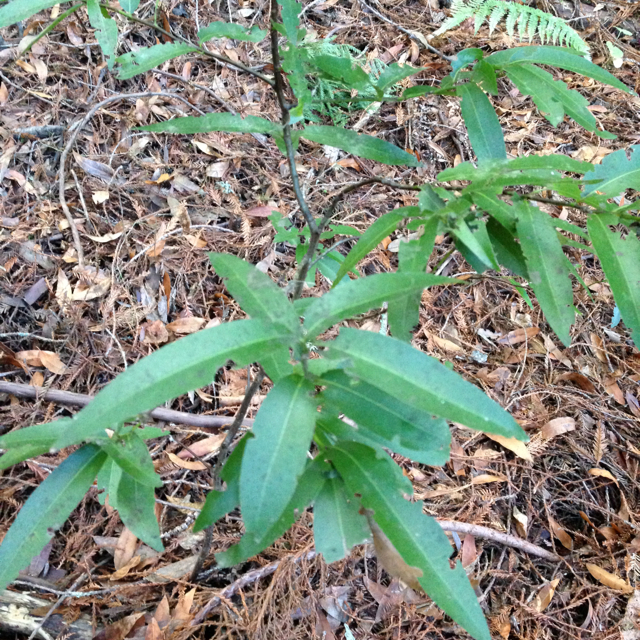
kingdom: Plantae
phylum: Tracheophyta
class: Magnoliopsida
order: Laurales
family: Lauraceae
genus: Umbellularia
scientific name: Umbellularia californica
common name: California bay
